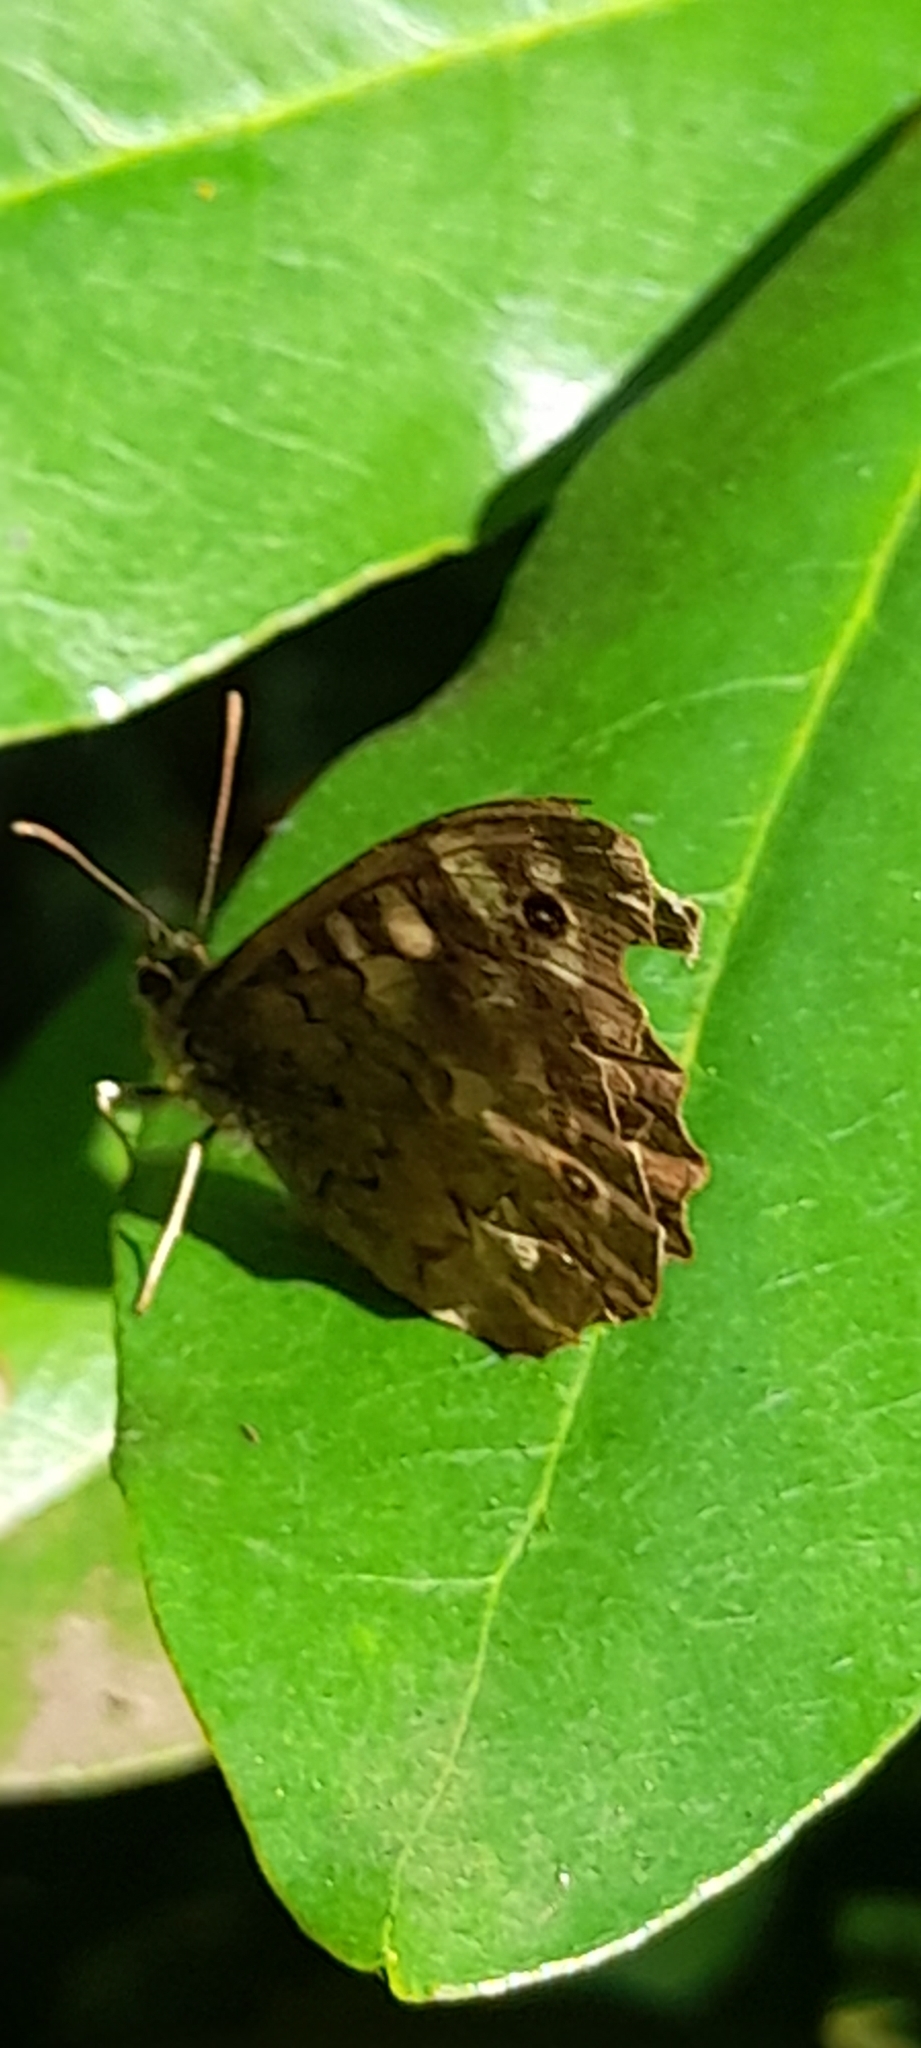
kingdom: Animalia
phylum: Arthropoda
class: Insecta
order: Lepidoptera
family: Nymphalidae
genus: Pararge
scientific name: Pararge aegeria
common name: Speckled wood
